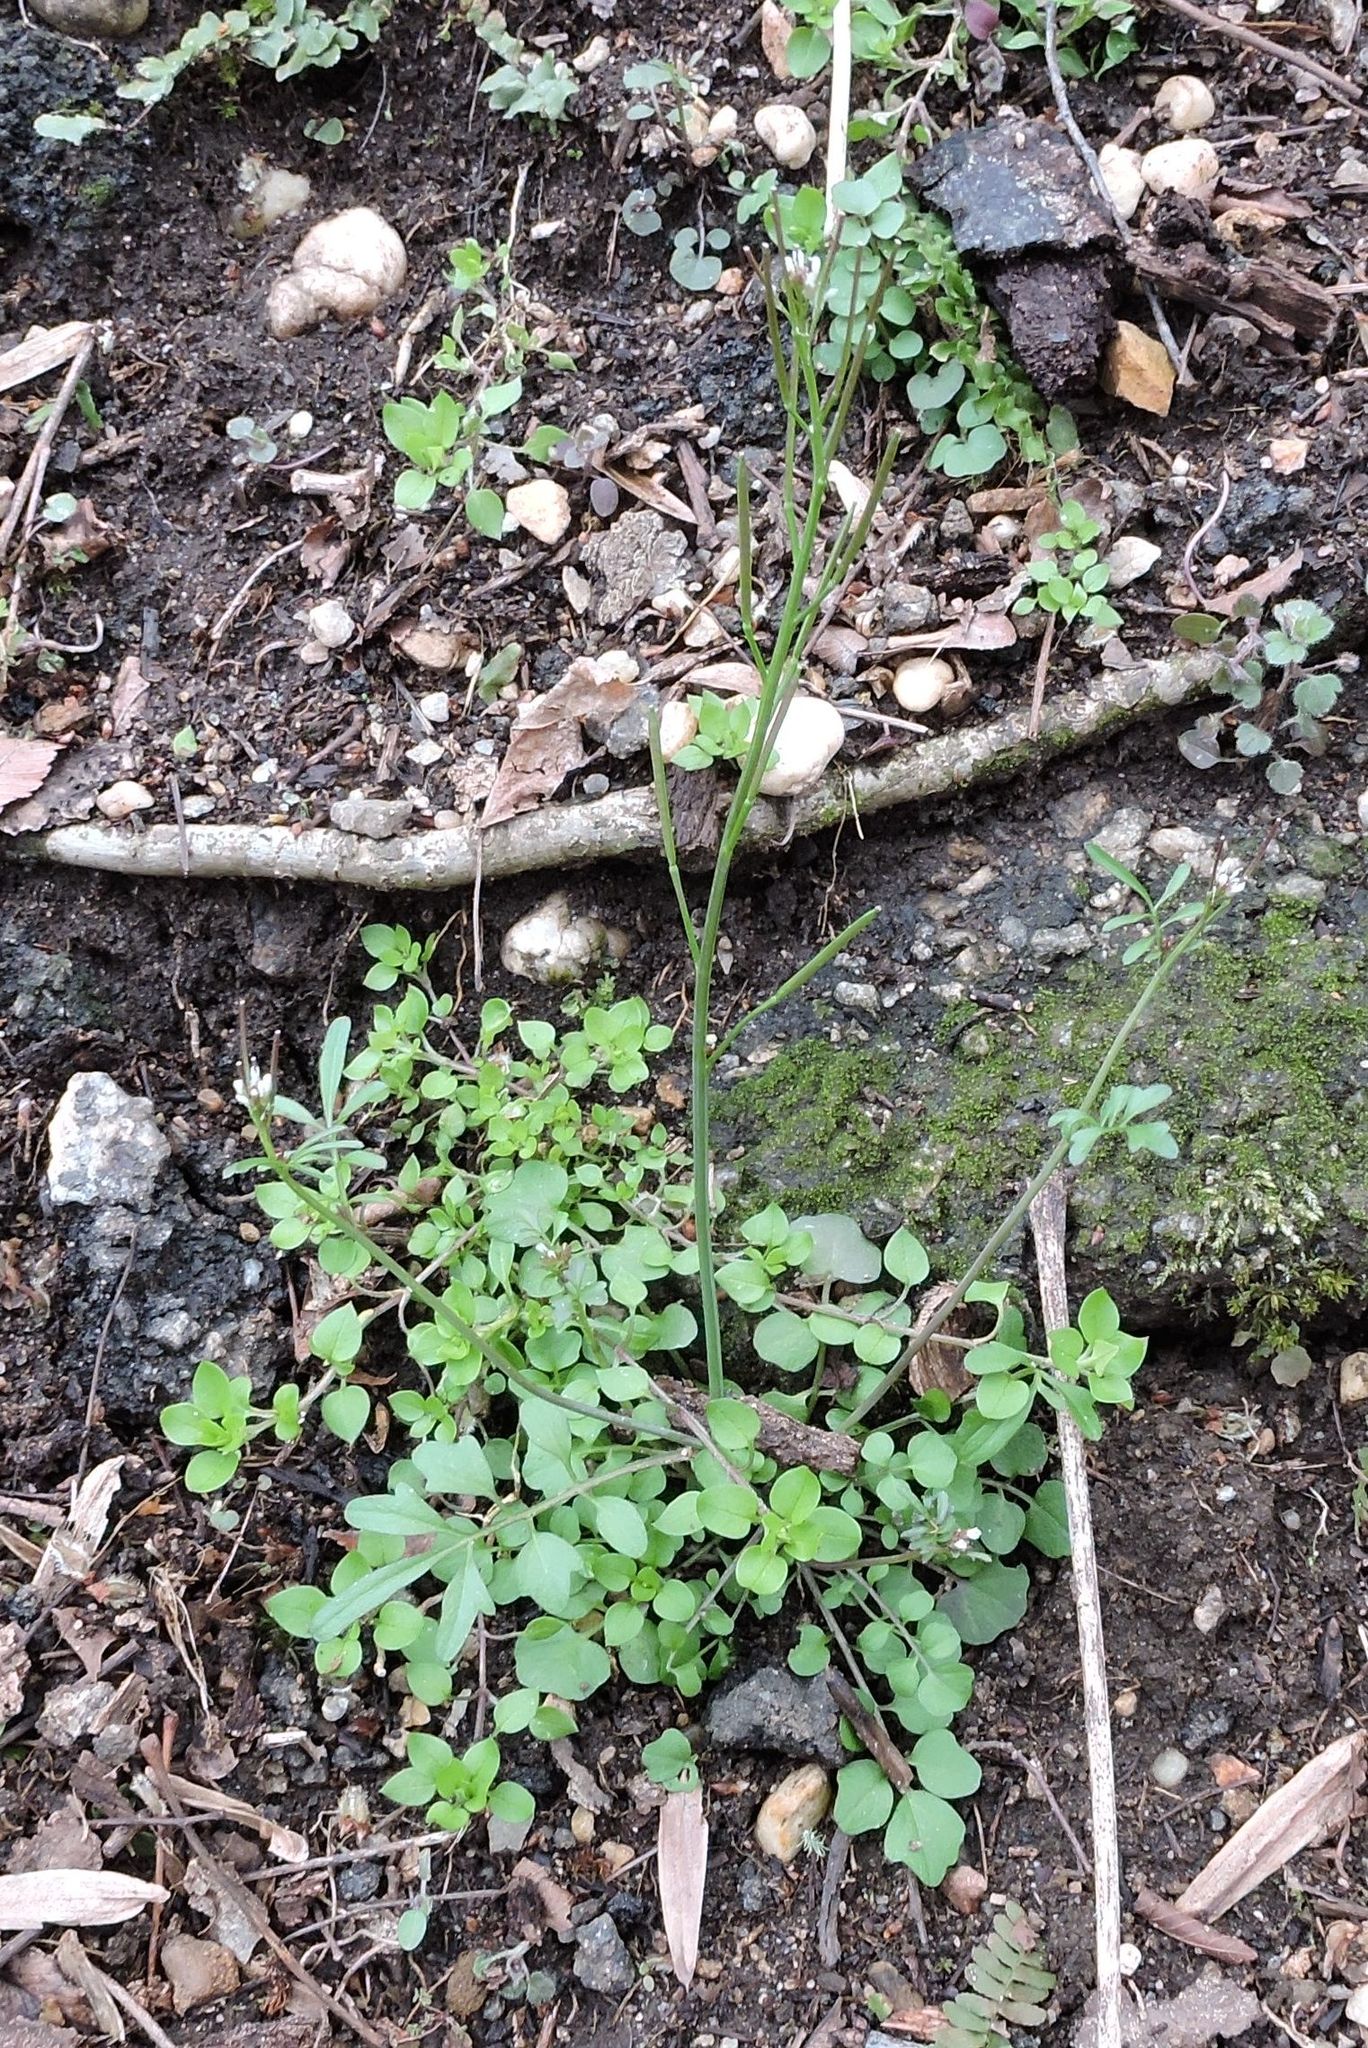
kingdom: Plantae
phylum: Tracheophyta
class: Magnoliopsida
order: Brassicales
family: Brassicaceae
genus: Cardamine
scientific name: Cardamine hirsuta
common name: Hairy bittercress
